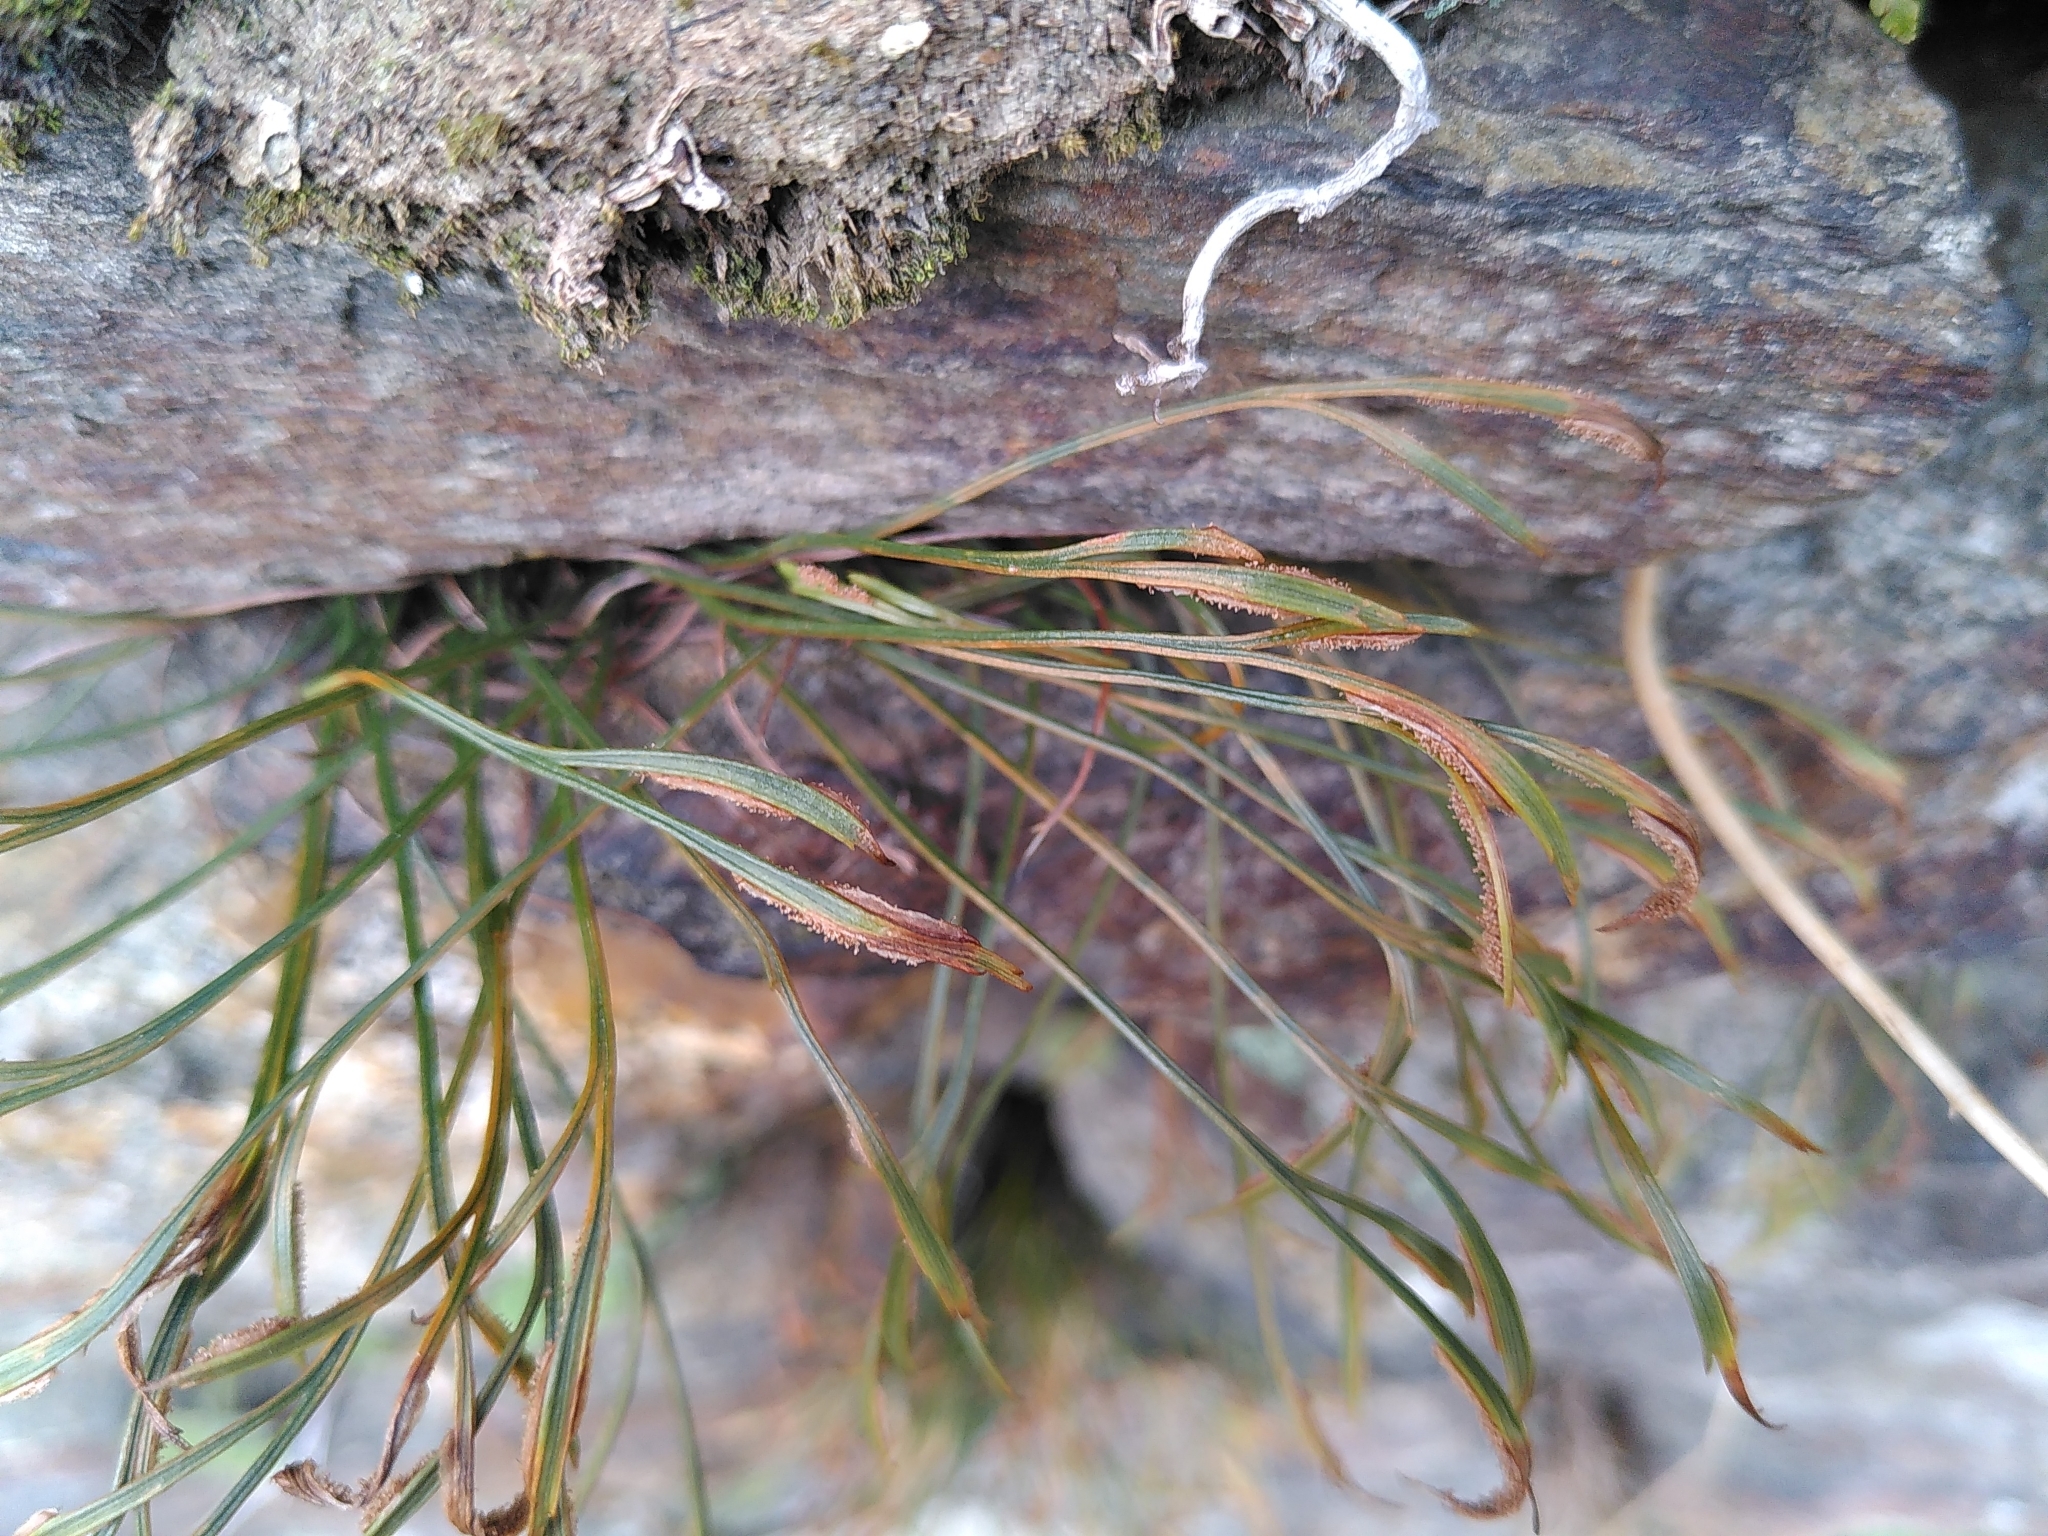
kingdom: Plantae
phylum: Tracheophyta
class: Polypodiopsida
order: Polypodiales
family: Aspleniaceae
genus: Asplenium
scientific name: Asplenium septentrionale
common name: Forked spleenwort
